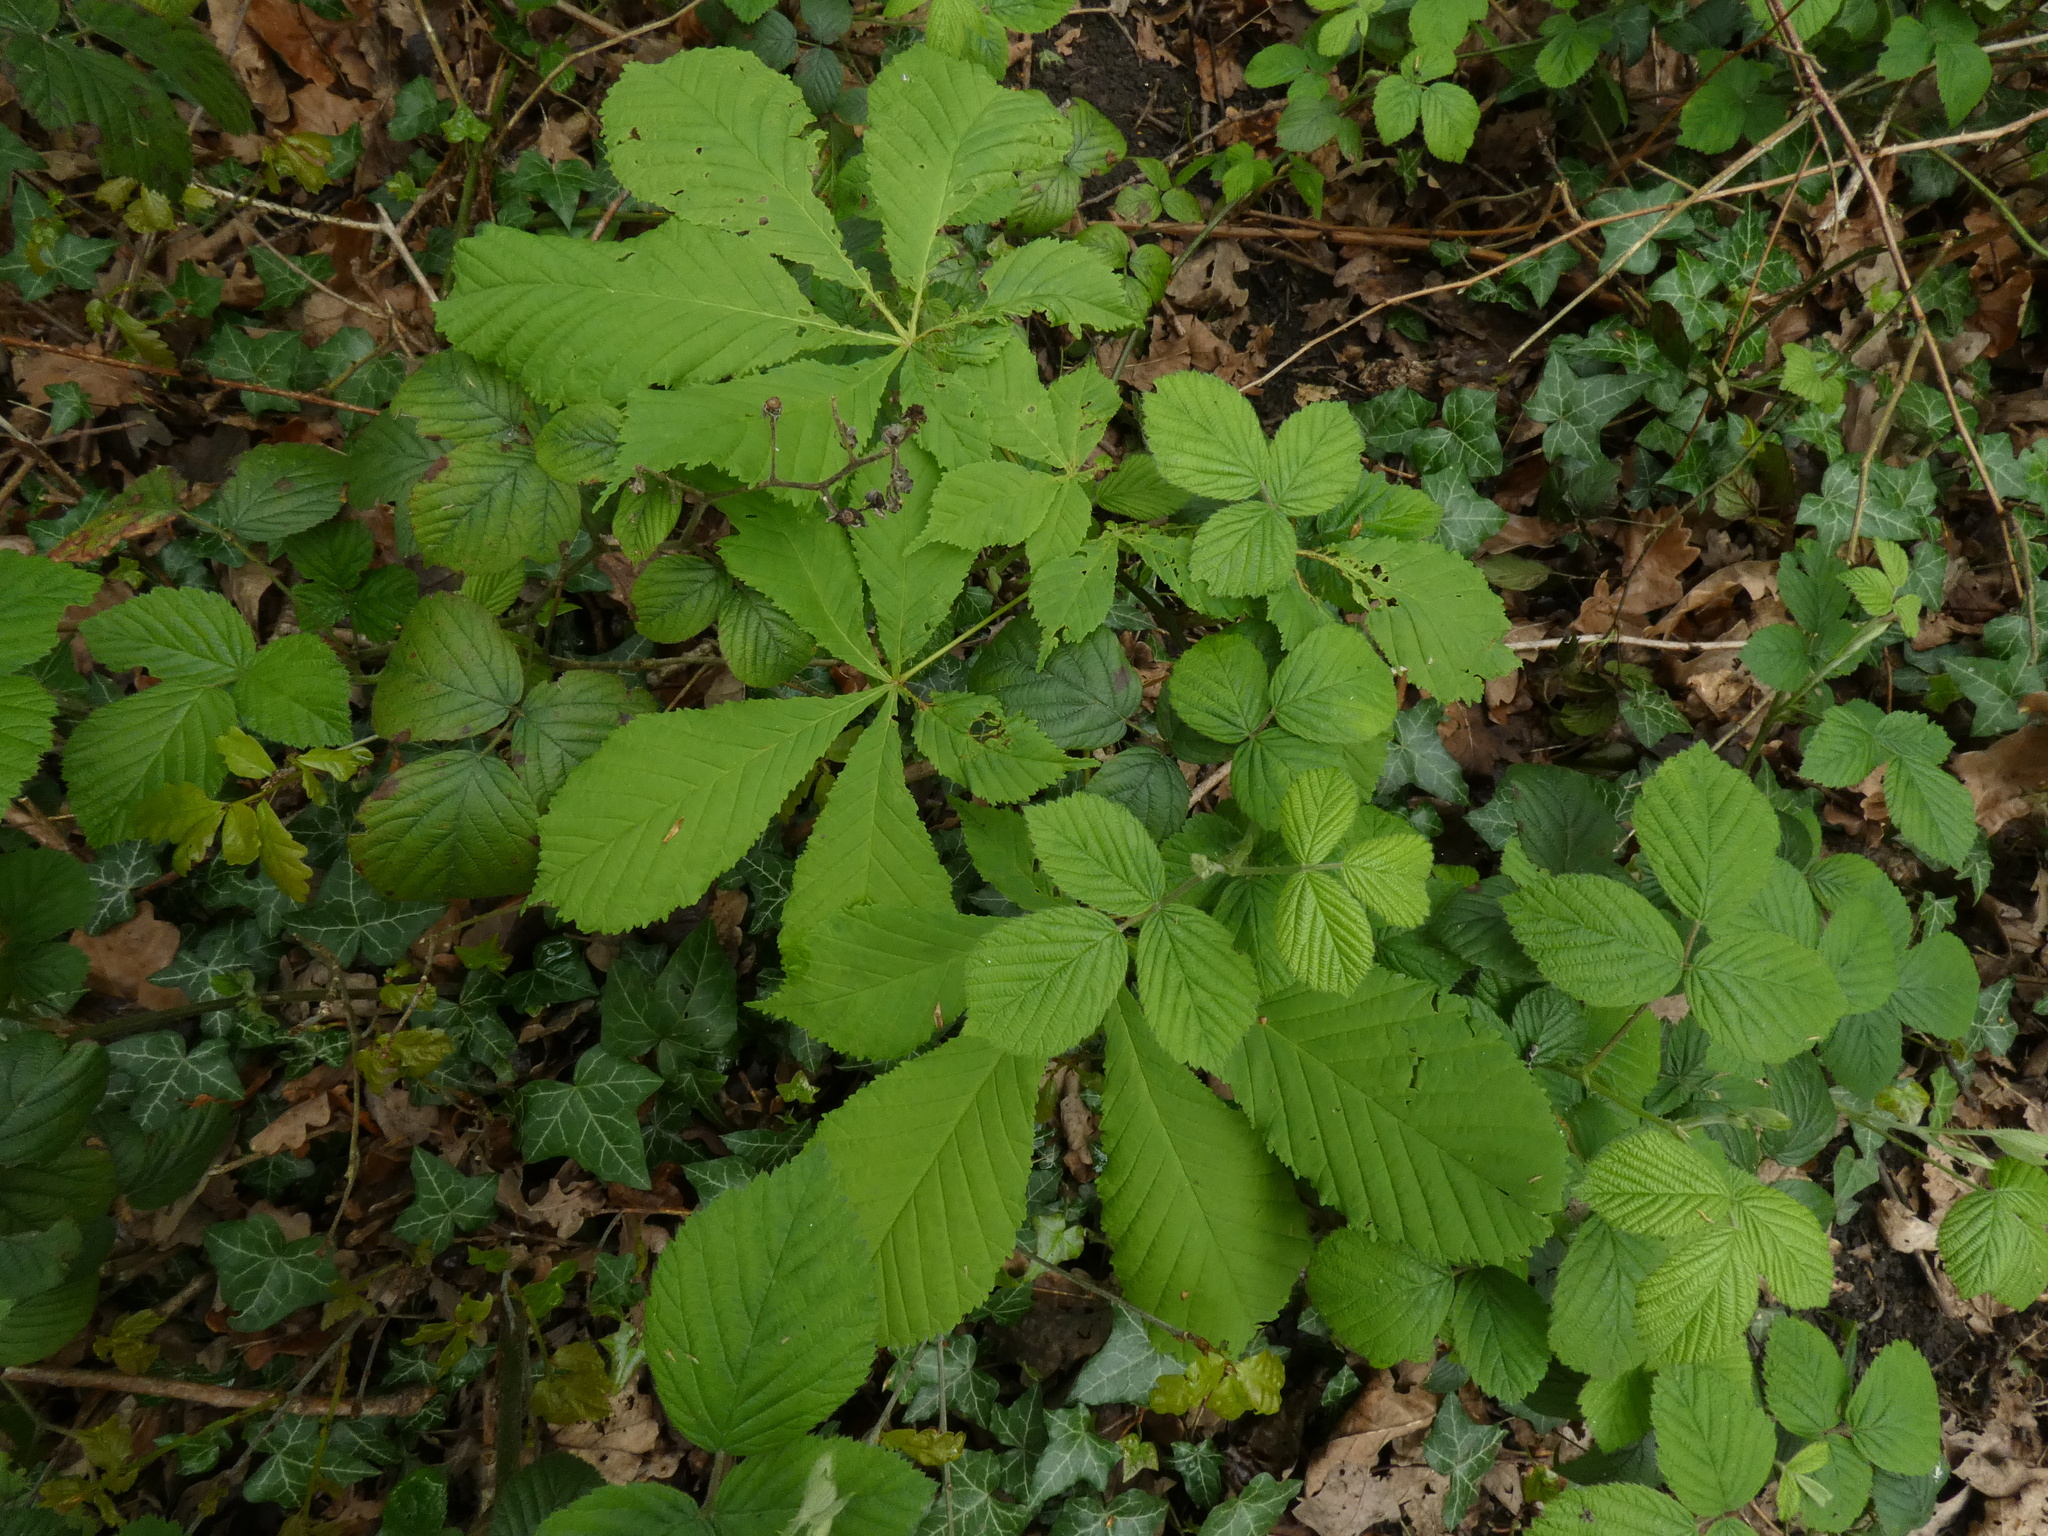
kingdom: Plantae
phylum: Tracheophyta
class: Magnoliopsida
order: Sapindales
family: Sapindaceae
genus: Aesculus
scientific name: Aesculus hippocastanum
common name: Horse-chestnut
